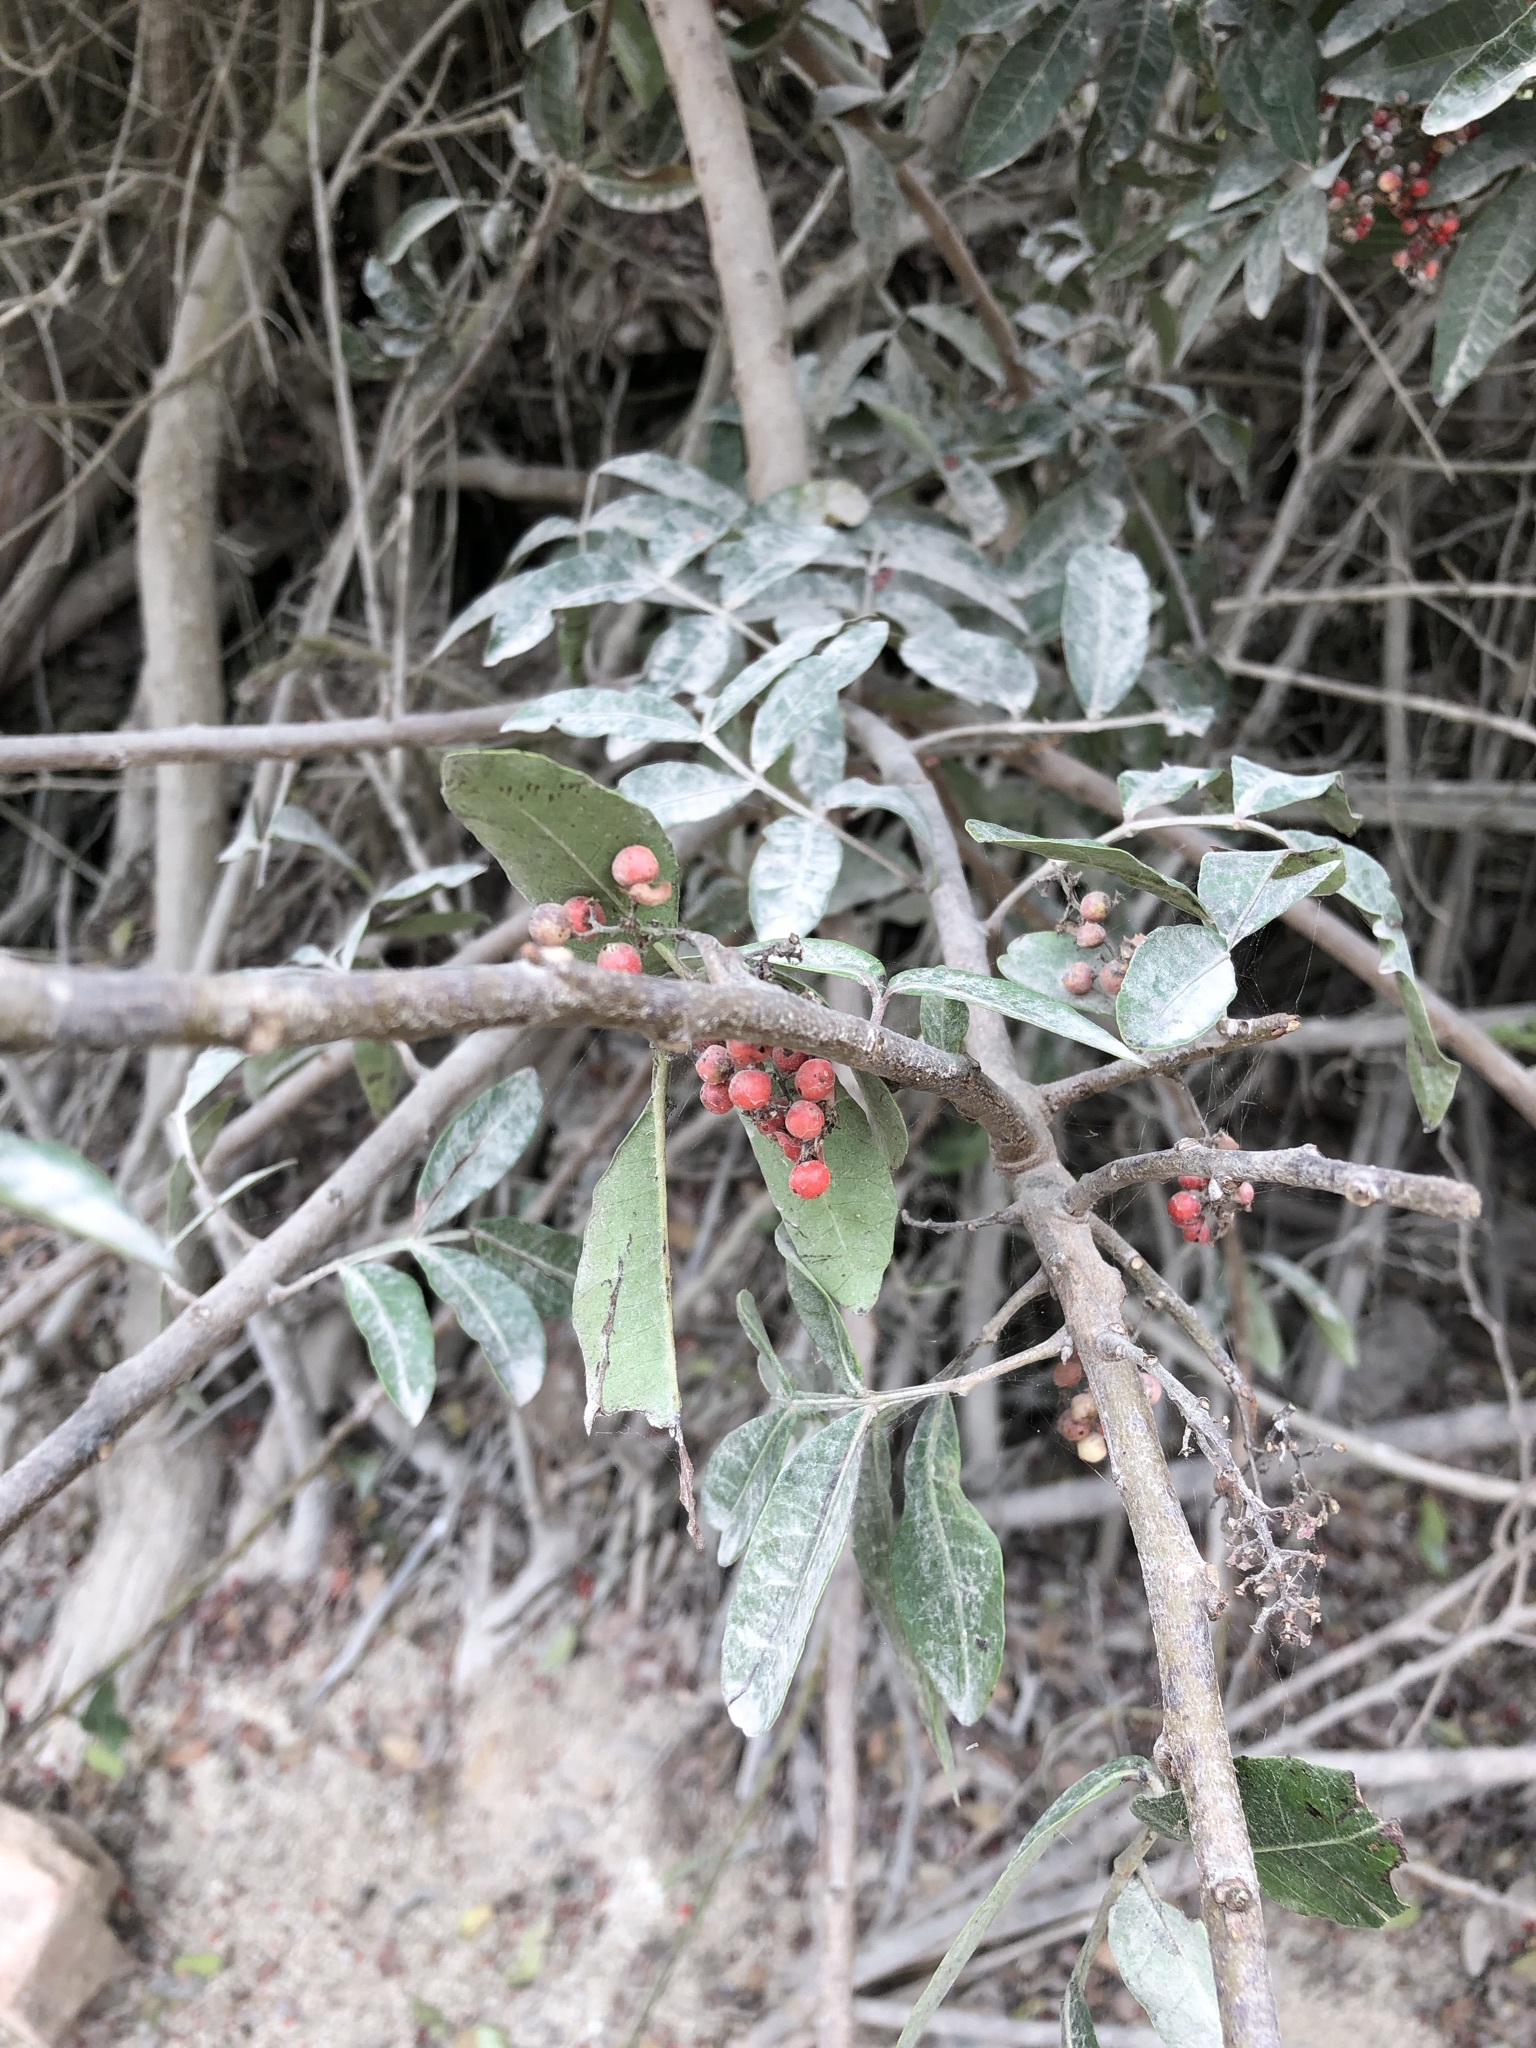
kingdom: Plantae
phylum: Tracheophyta
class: Magnoliopsida
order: Sapindales
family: Anacardiaceae
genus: Schinus
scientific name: Schinus terebinthifolia
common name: Brazilian peppertree
